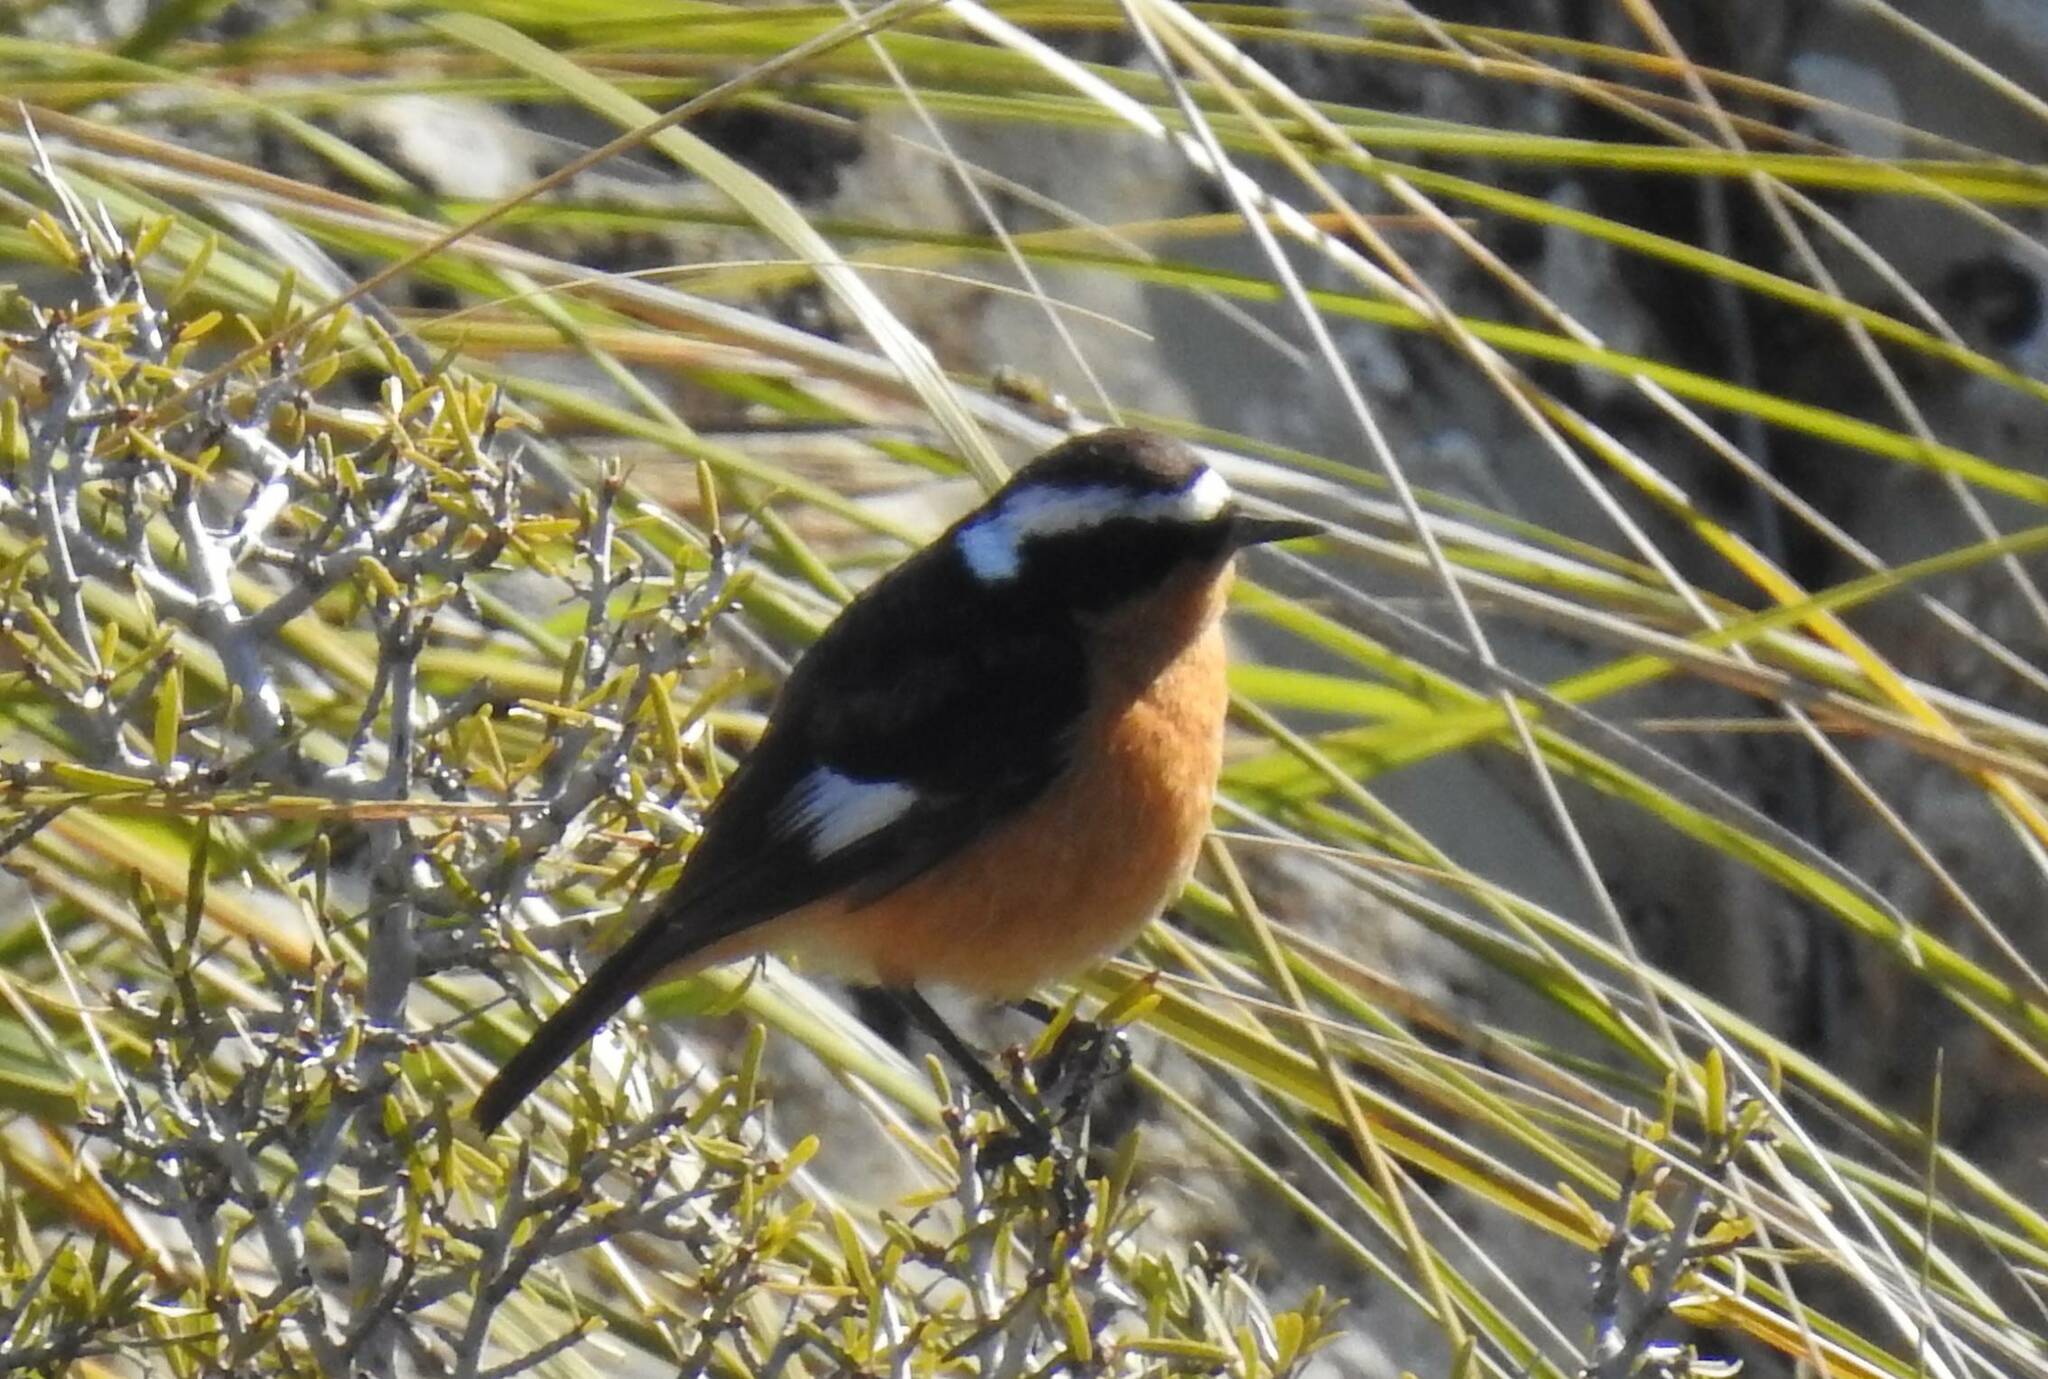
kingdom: Animalia
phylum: Chordata
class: Aves
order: Passeriformes
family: Muscicapidae
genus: Phoenicurus
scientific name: Phoenicurus moussieri
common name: Moussier's redstart
